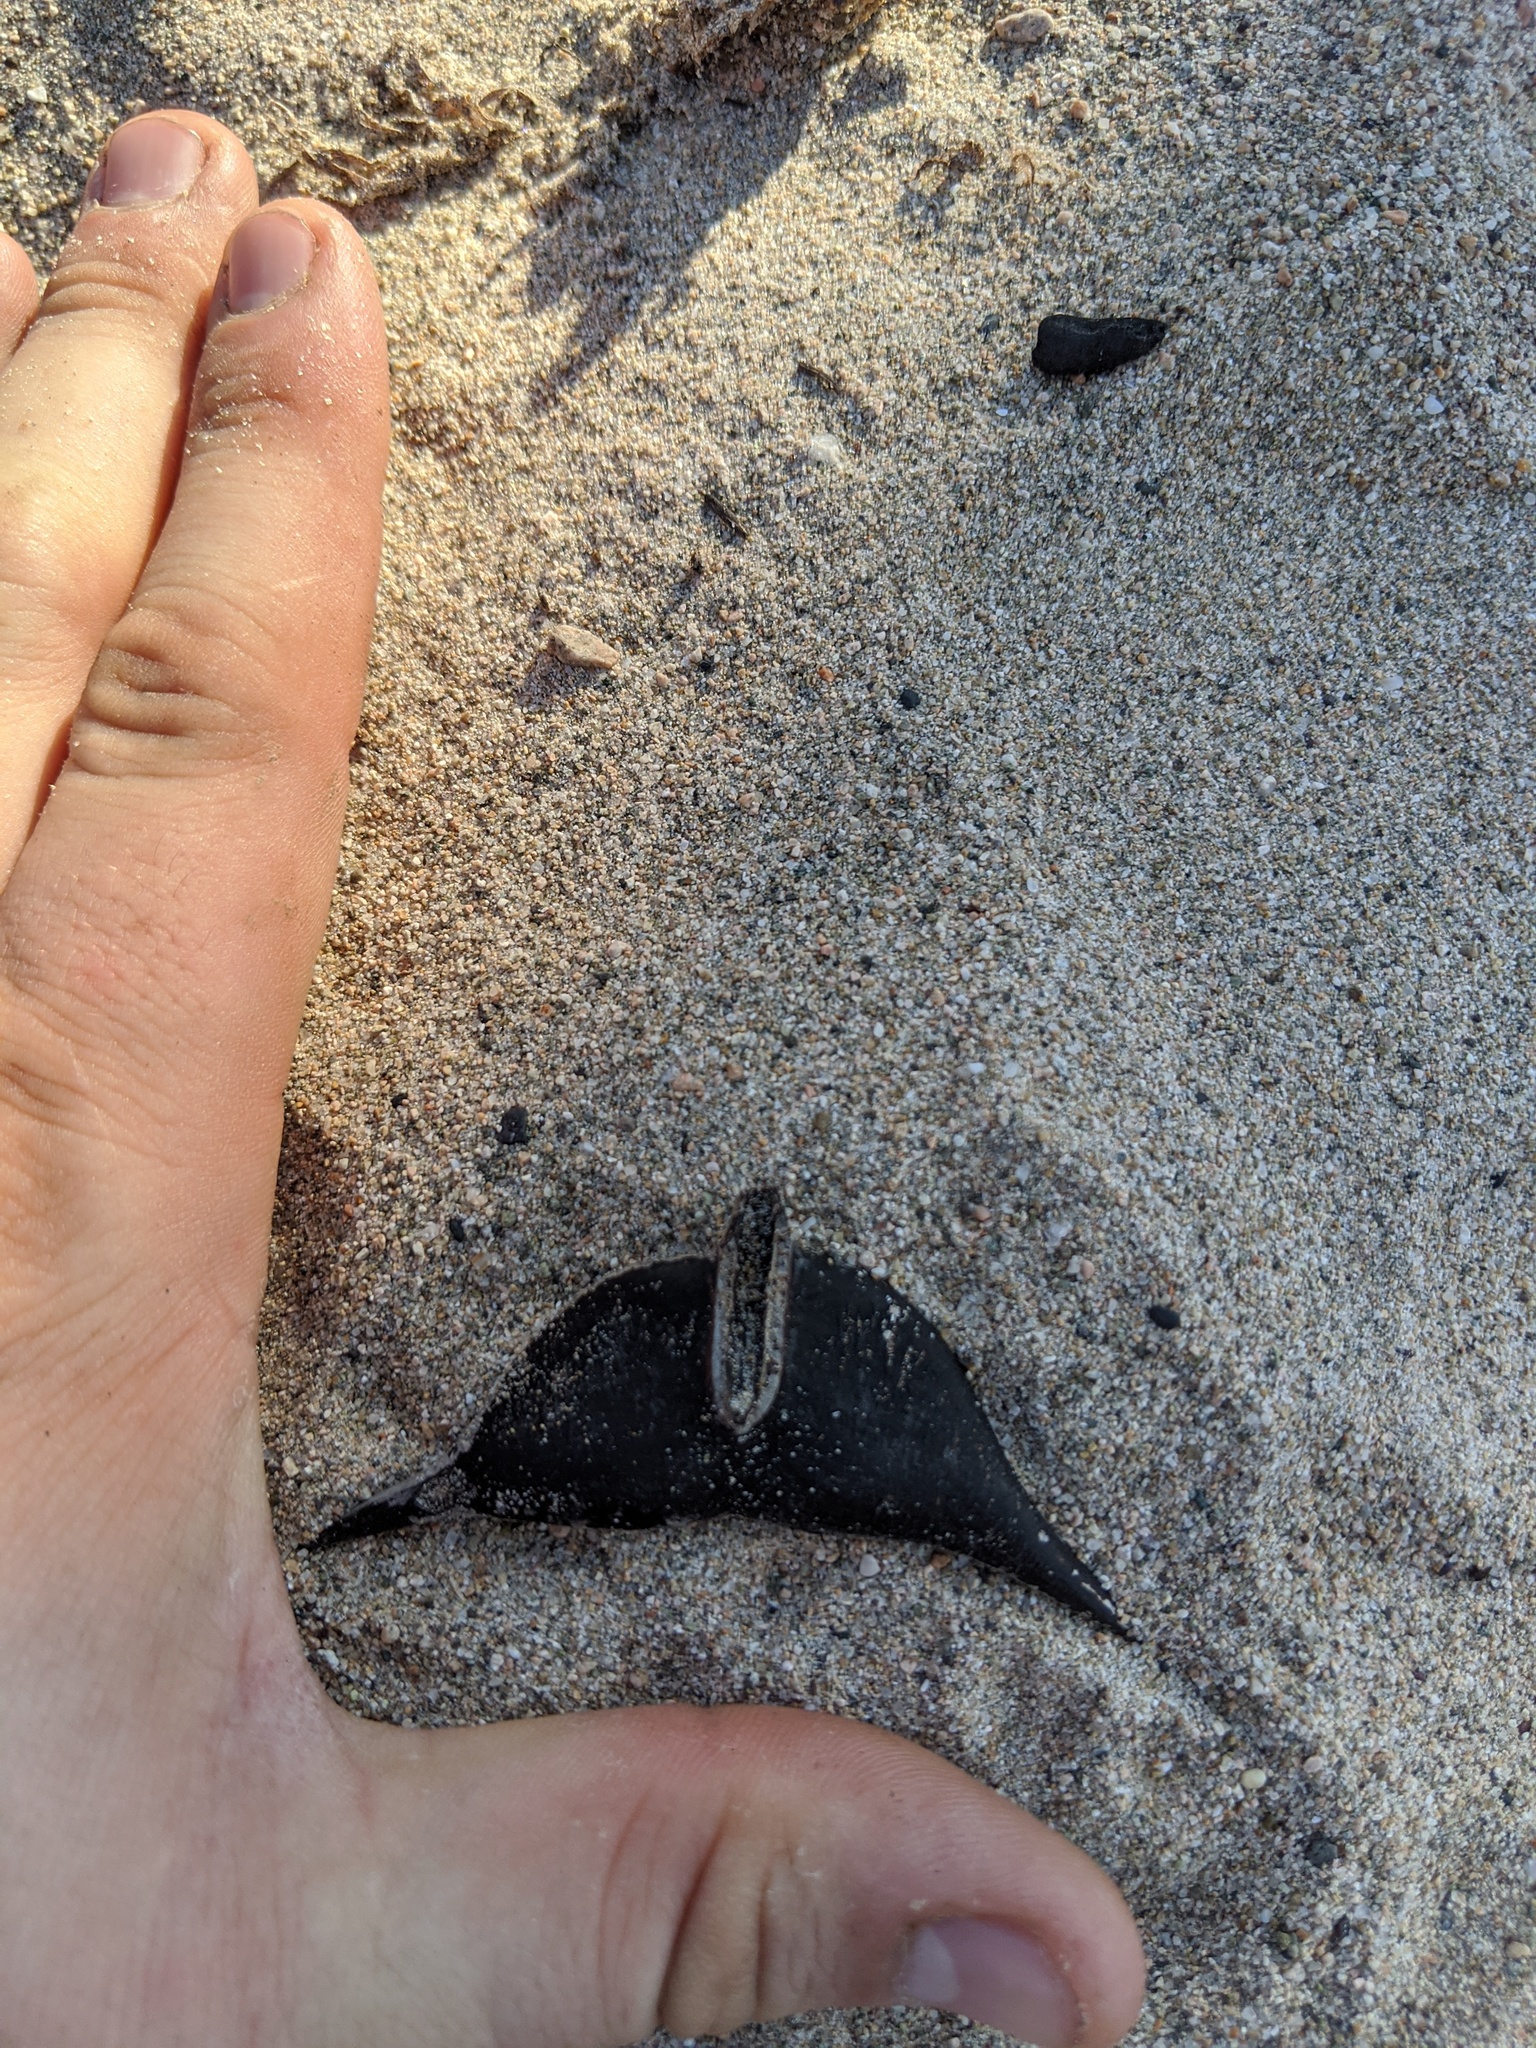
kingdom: Plantae
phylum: Tracheophyta
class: Magnoliopsida
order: Fabales
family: Fabaceae
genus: Vachellia
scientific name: Vachellia cornigera
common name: Bullhorn wattle
